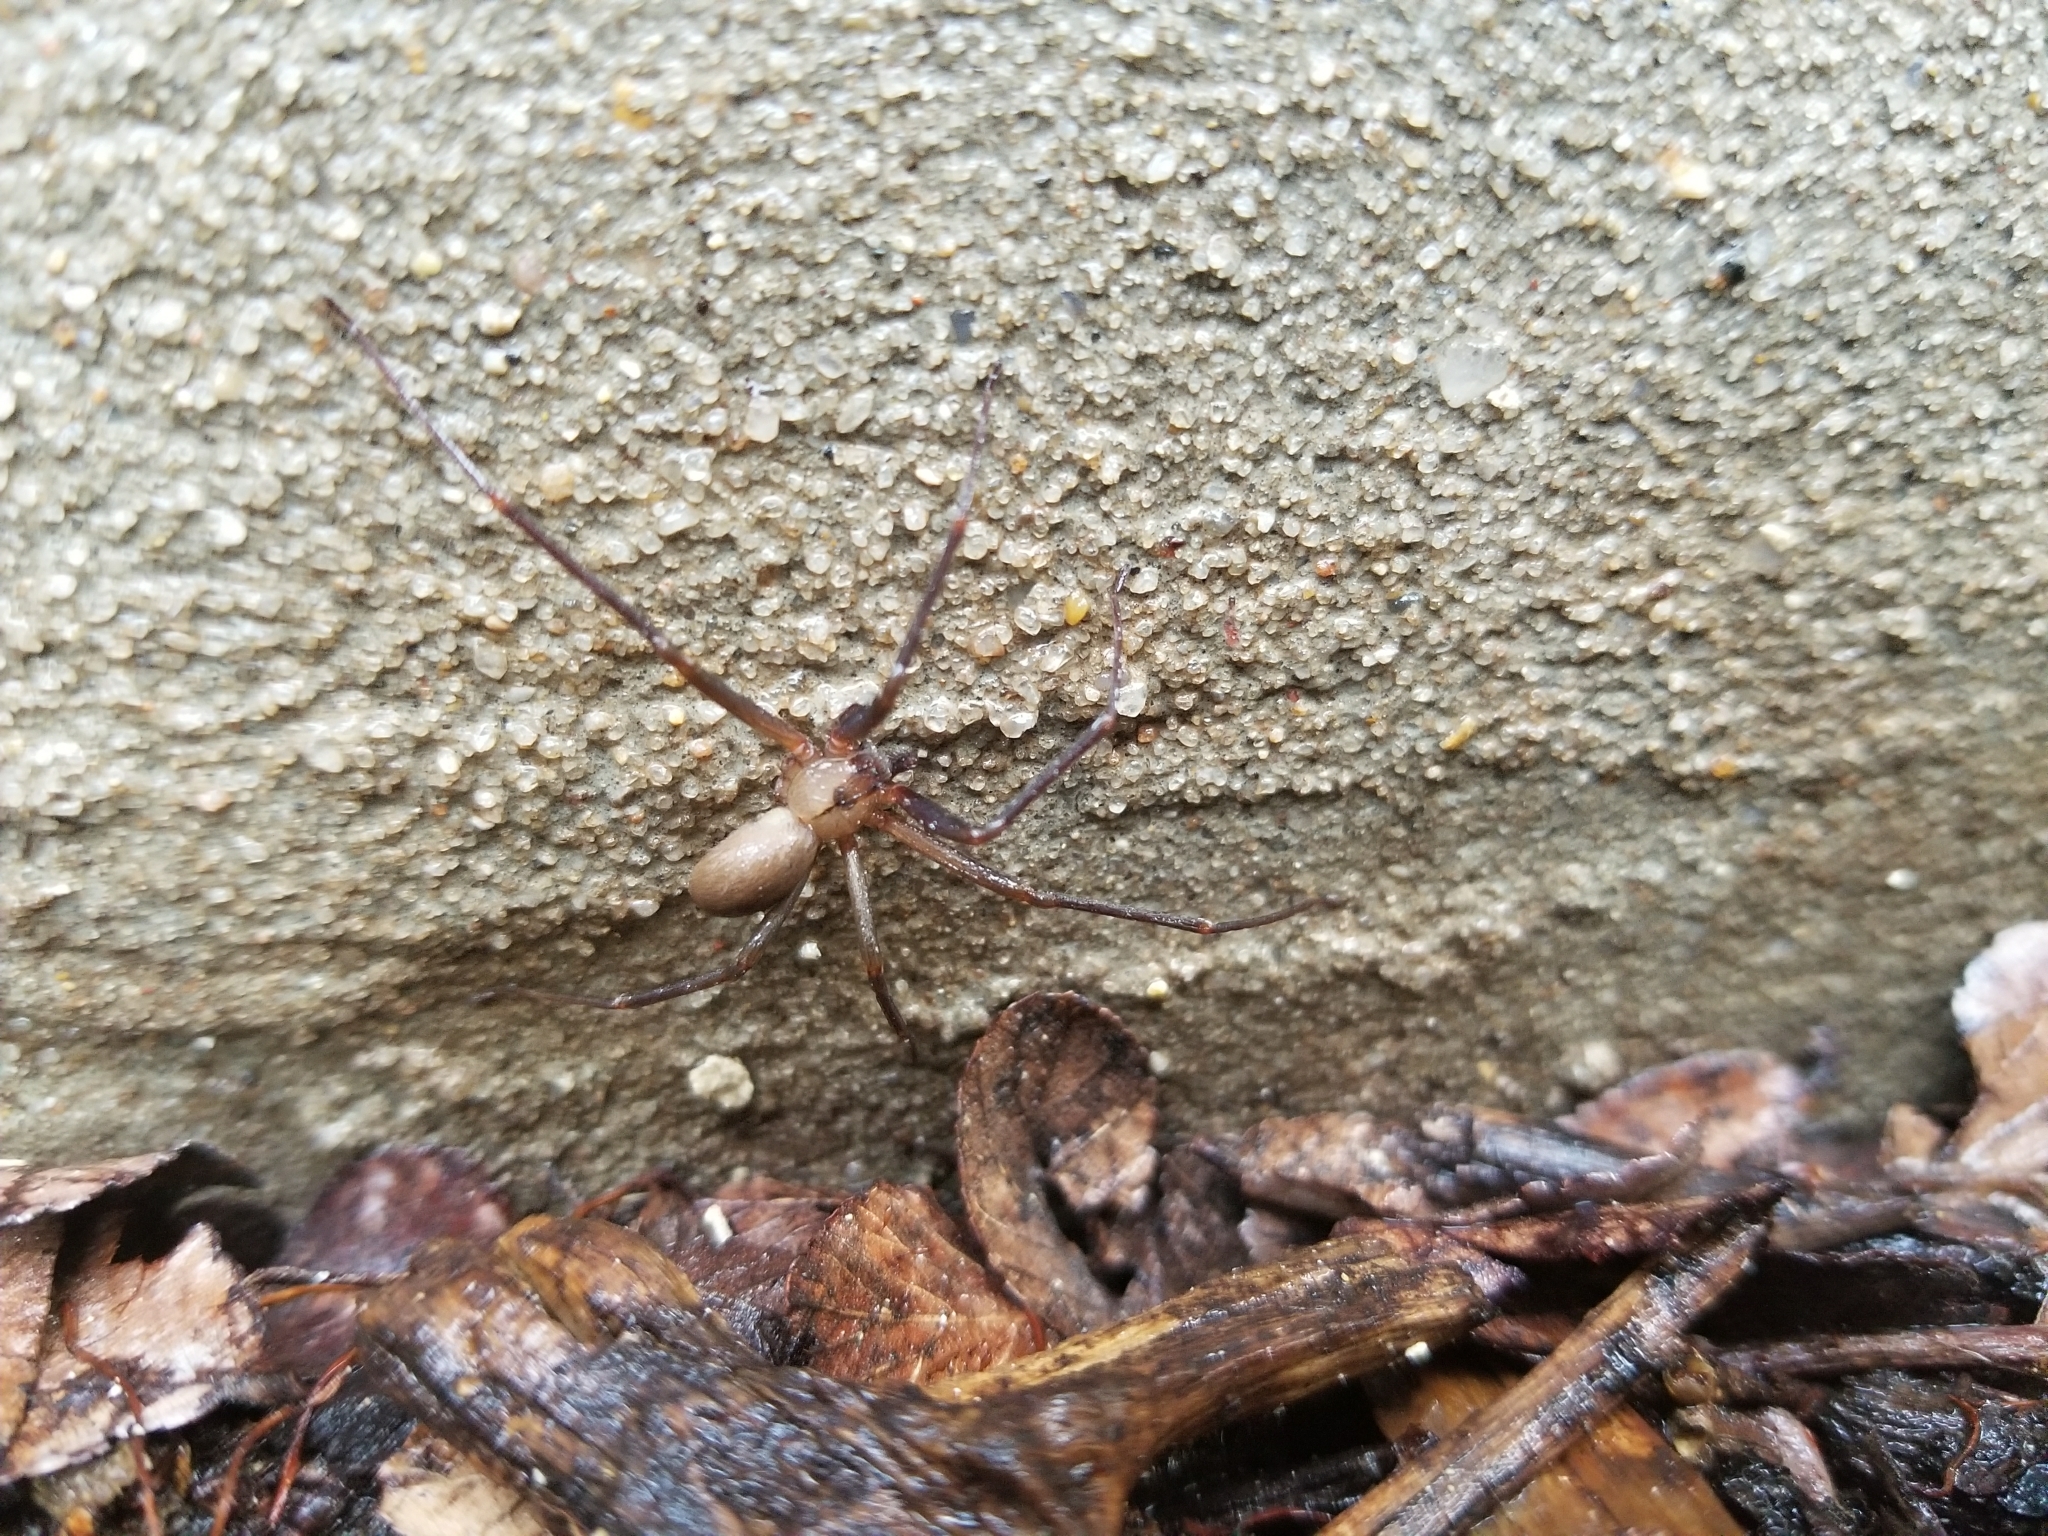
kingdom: Animalia
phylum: Arthropoda
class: Arachnida
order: Araneae
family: Sicariidae
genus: Loxosceles
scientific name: Loxosceles reclusa
